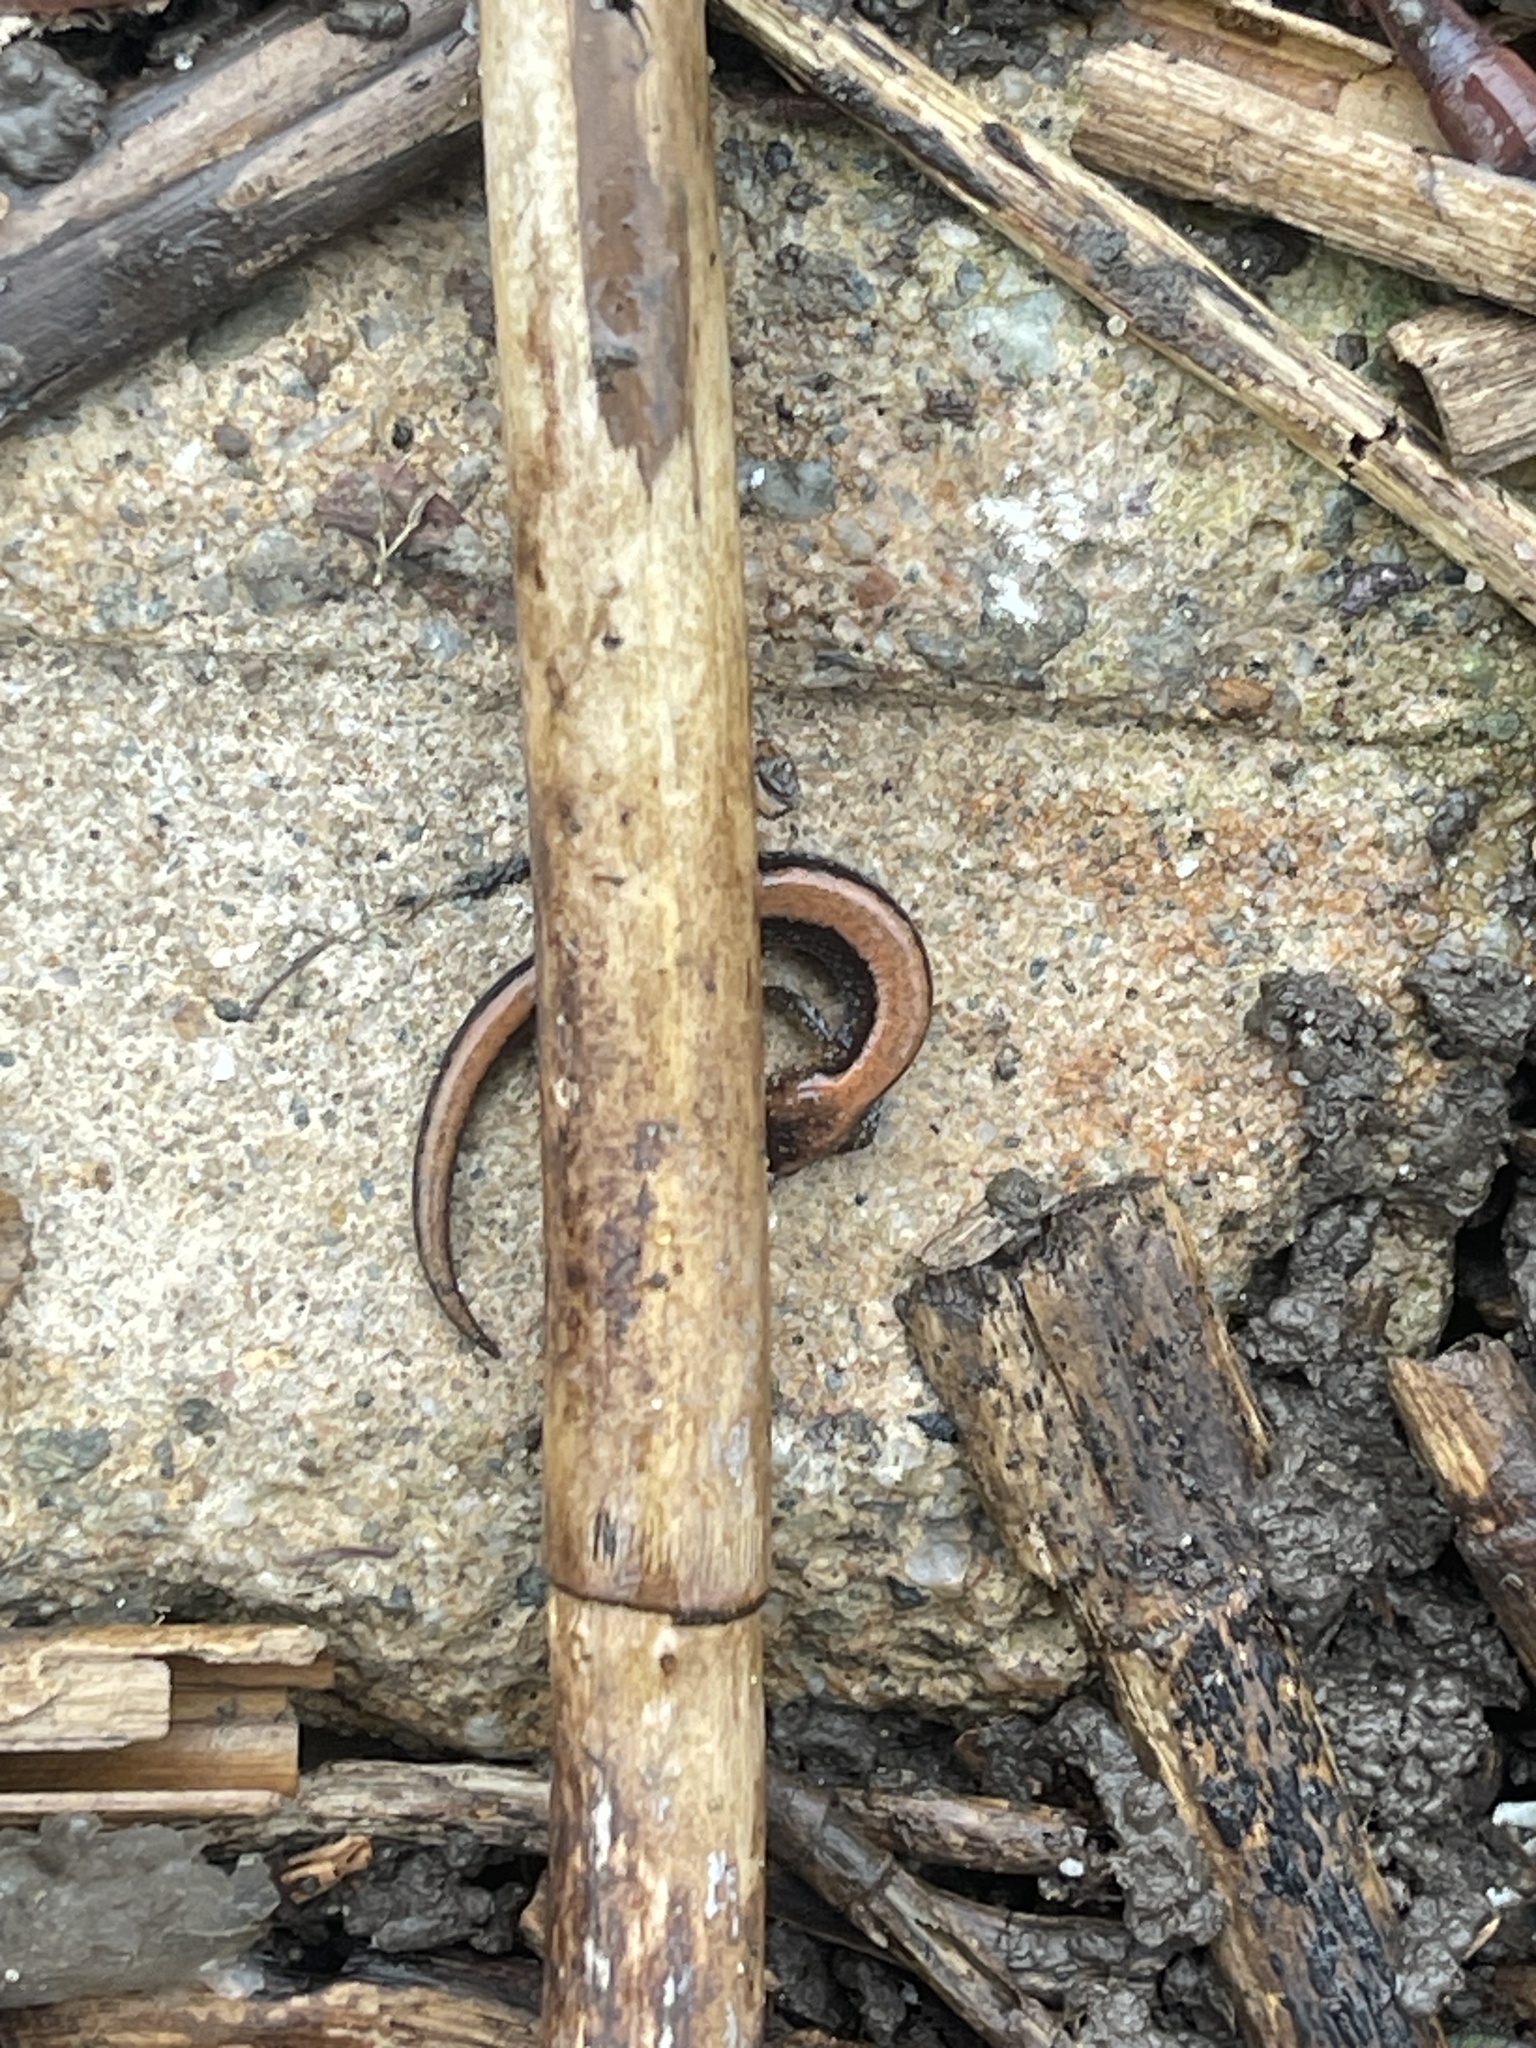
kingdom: Animalia
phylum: Chordata
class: Amphibia
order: Caudata
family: Plethodontidae
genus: Plethodon
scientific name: Plethodon cinereus
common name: Redback salamander
